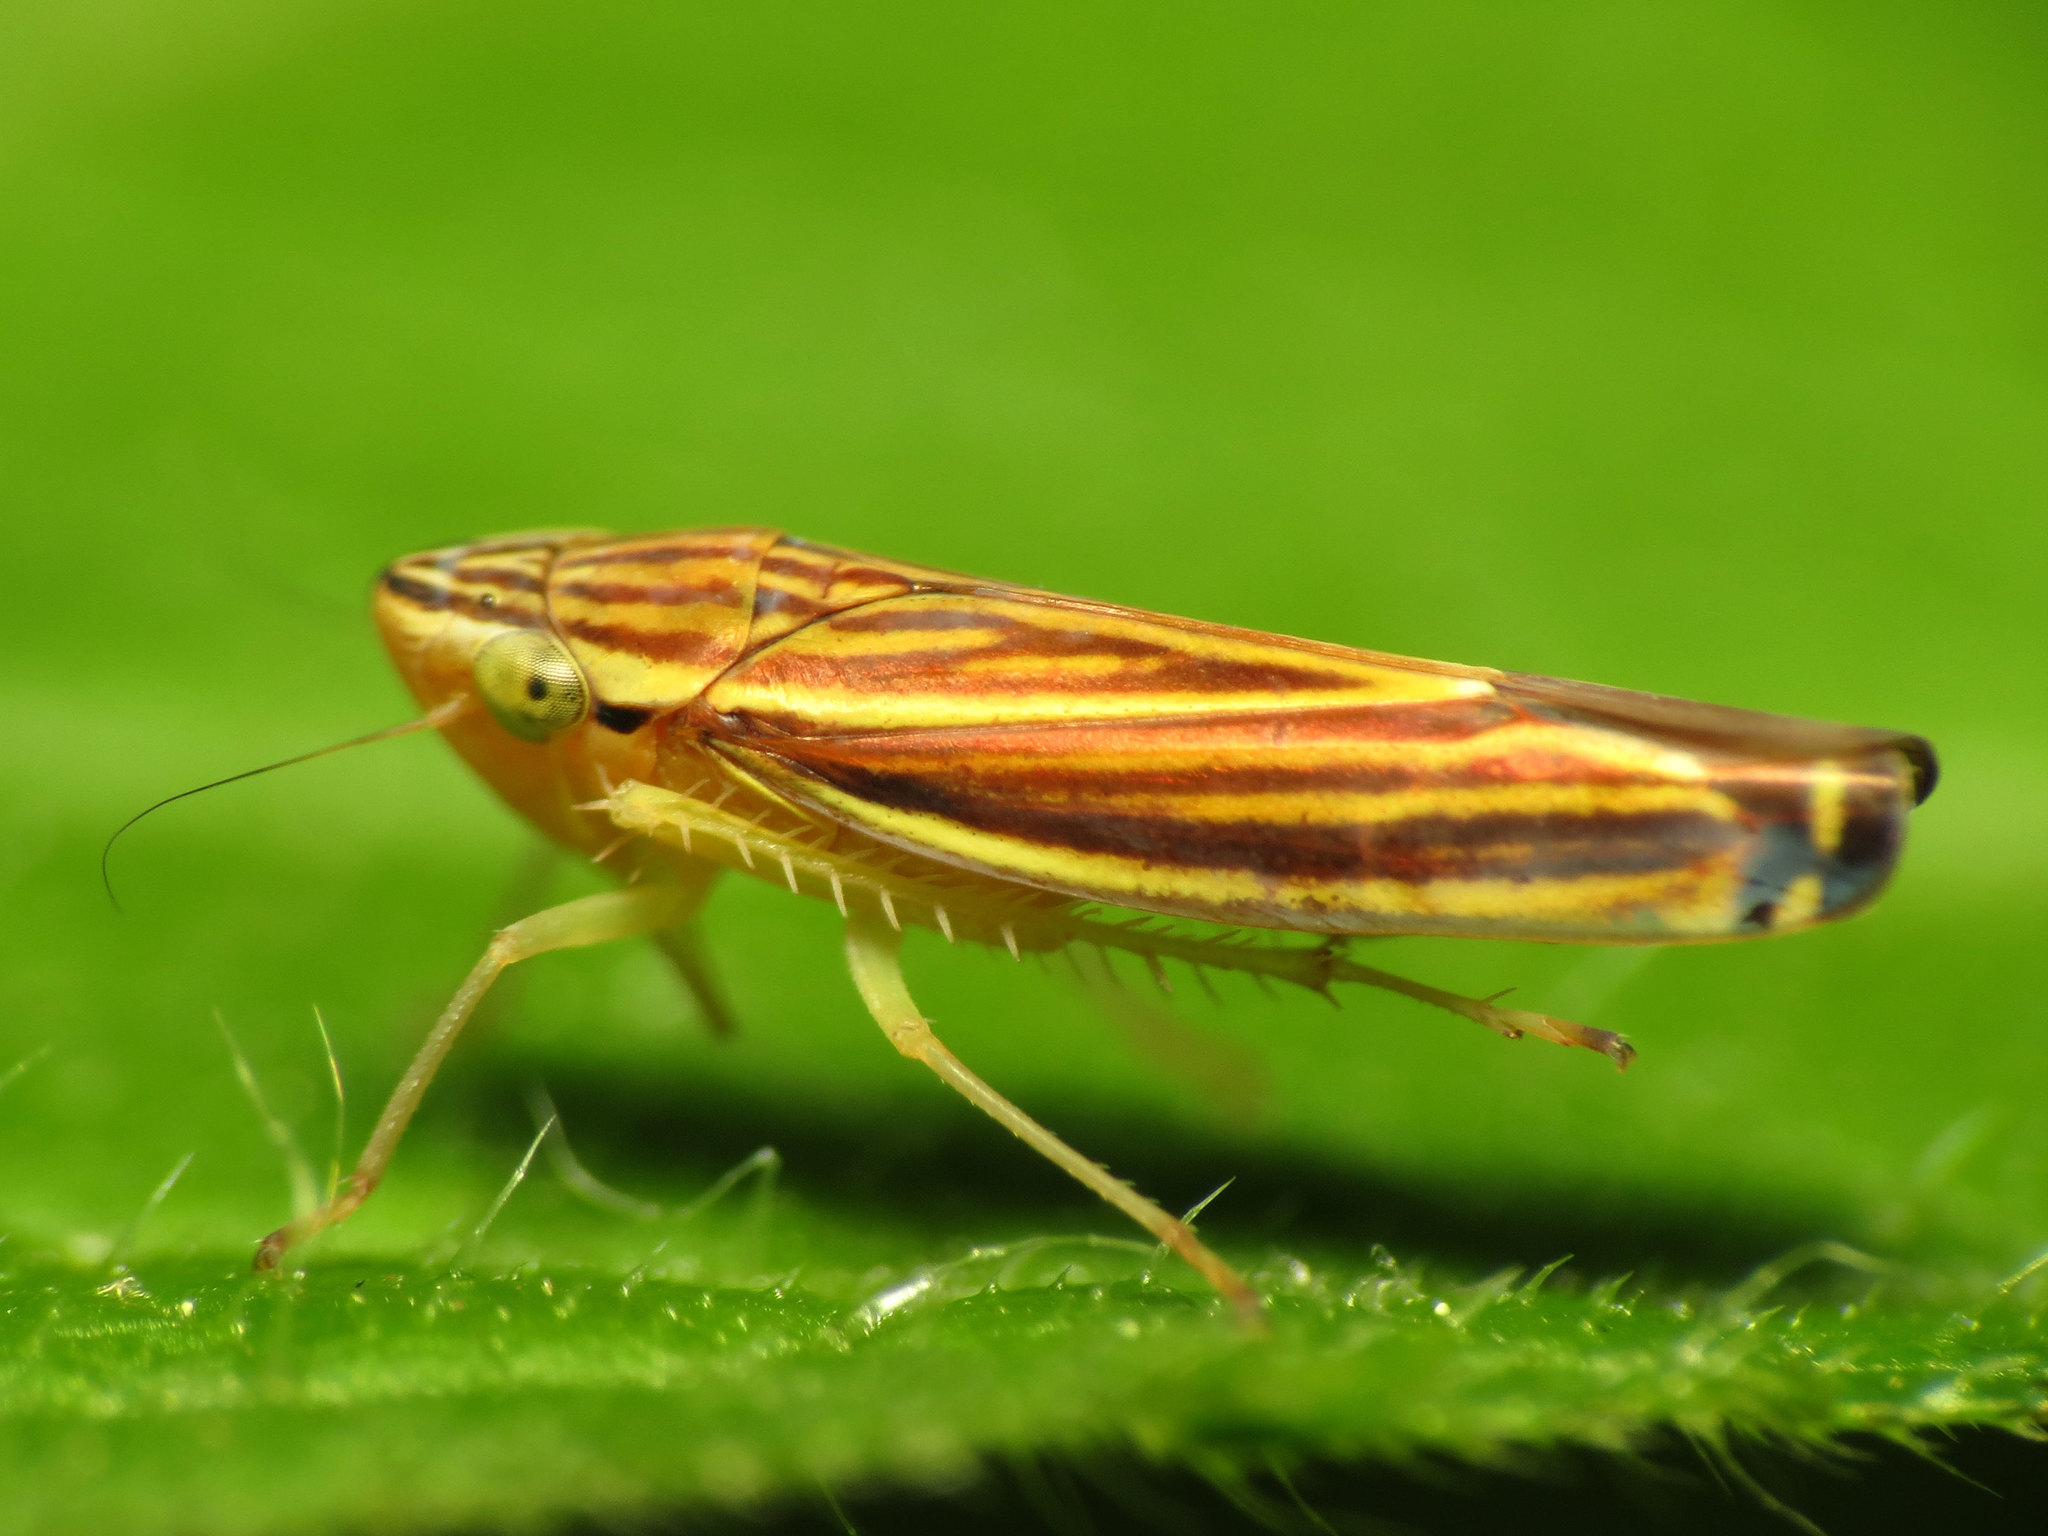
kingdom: Animalia
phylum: Arthropoda
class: Insecta
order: Hemiptera
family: Cicadellidae
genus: Sibovia
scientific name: Sibovia occatoria
